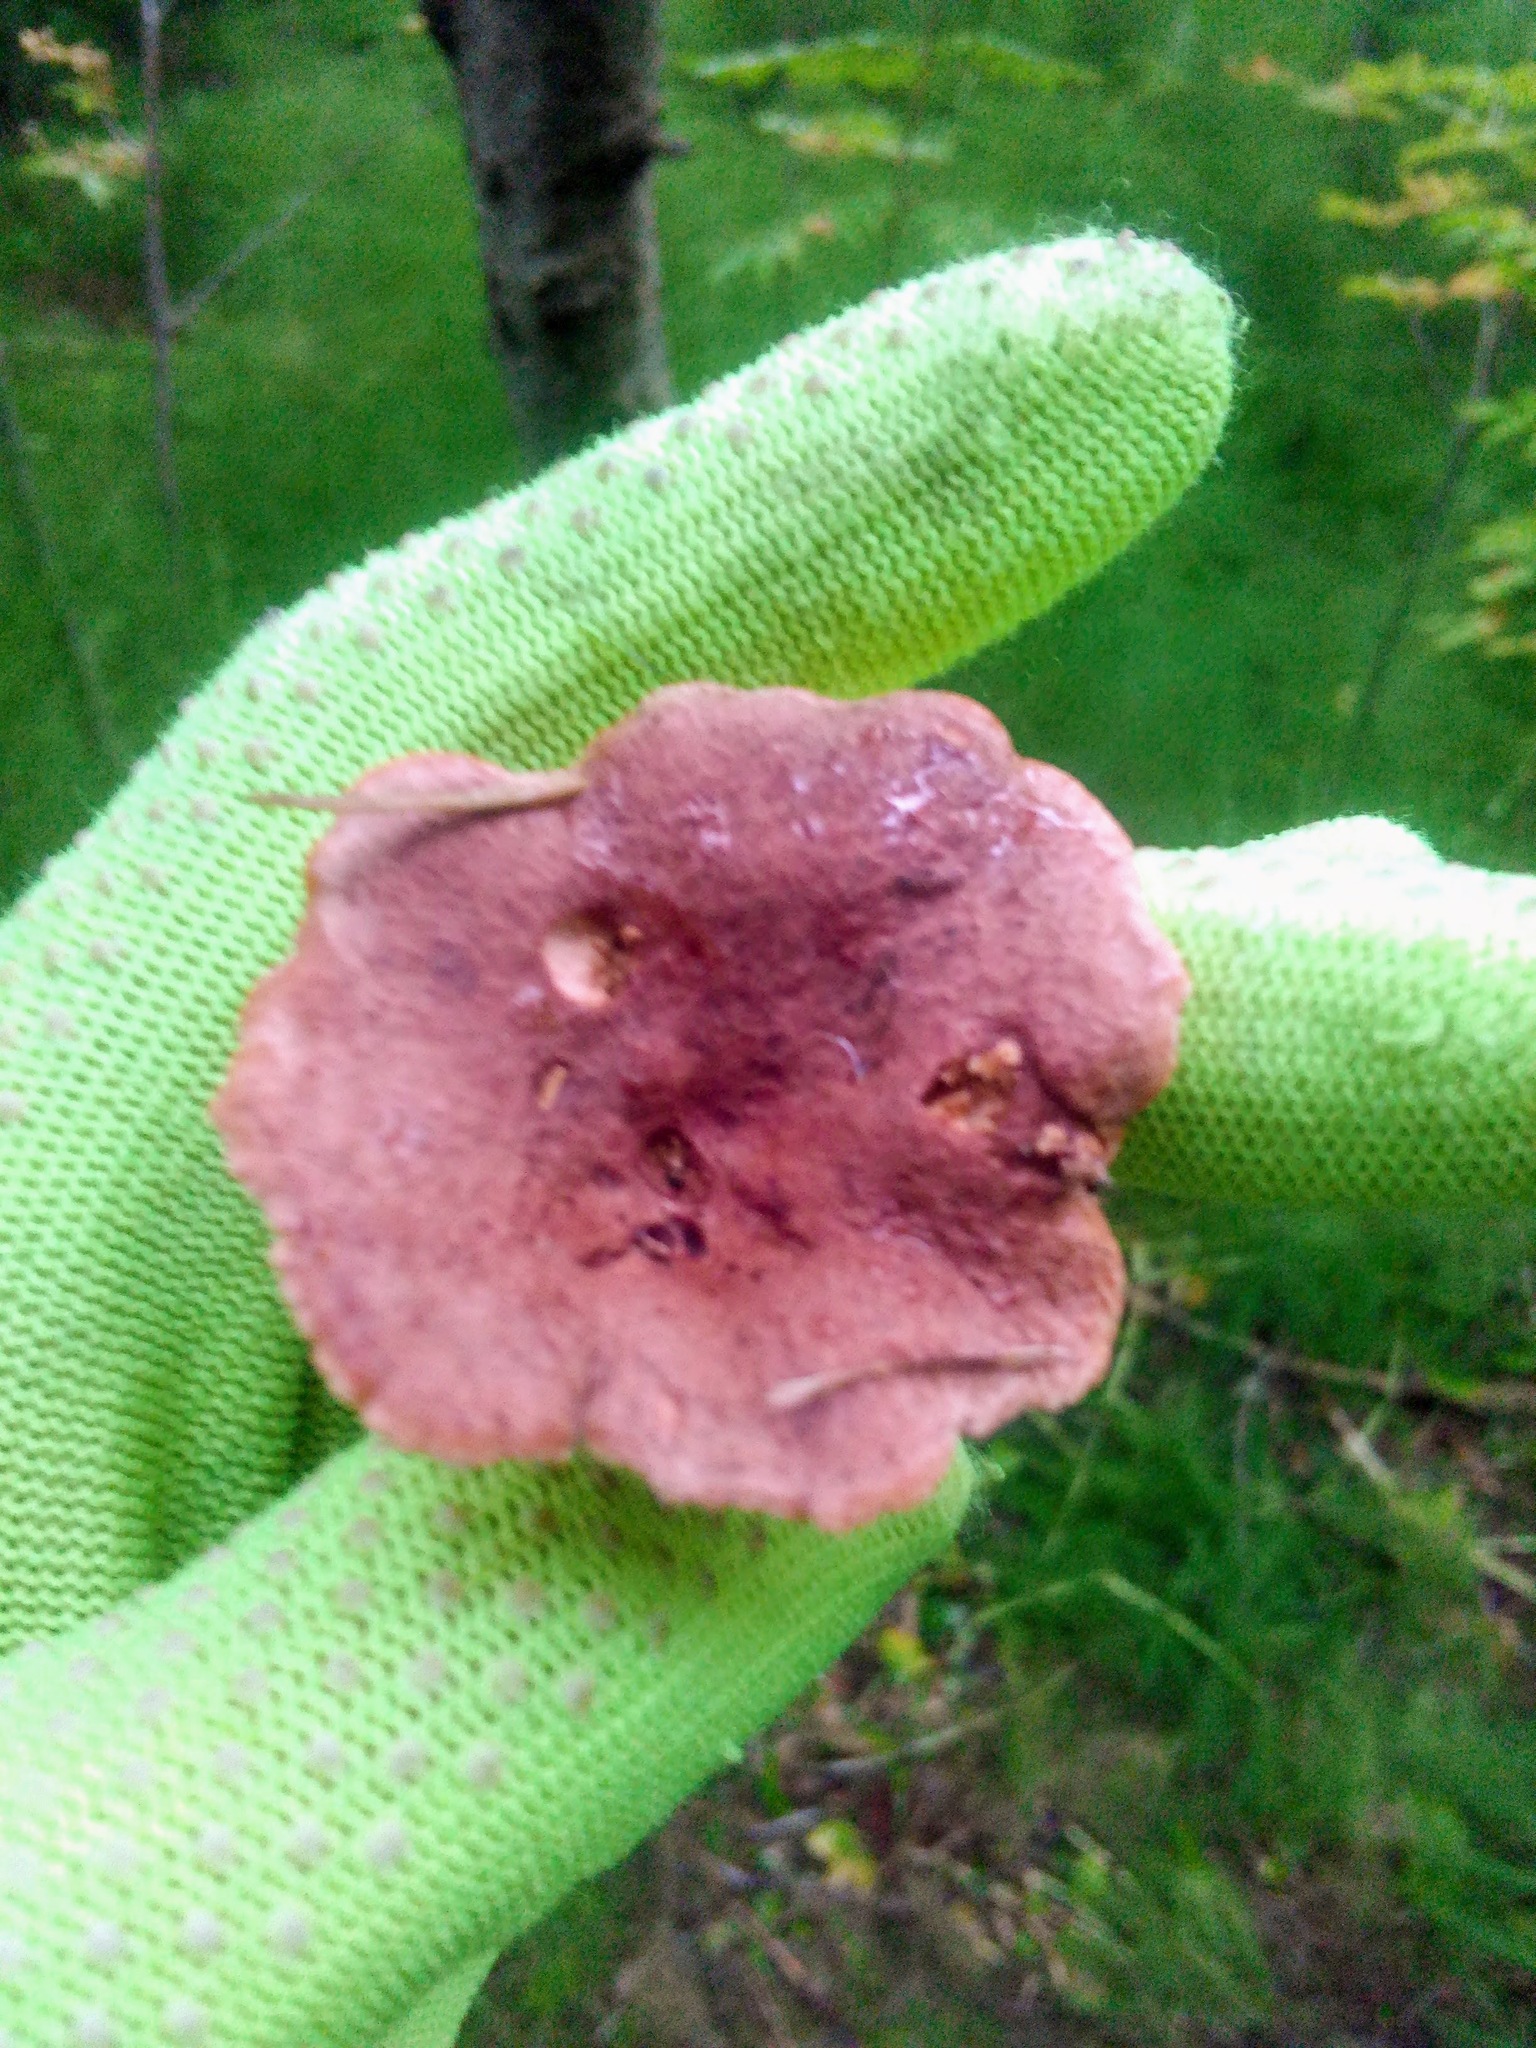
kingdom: Fungi
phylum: Basidiomycota
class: Agaricomycetes
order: Russulales
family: Russulaceae
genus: Lactarius
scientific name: Lactarius rufus
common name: Rufous milk-cap
